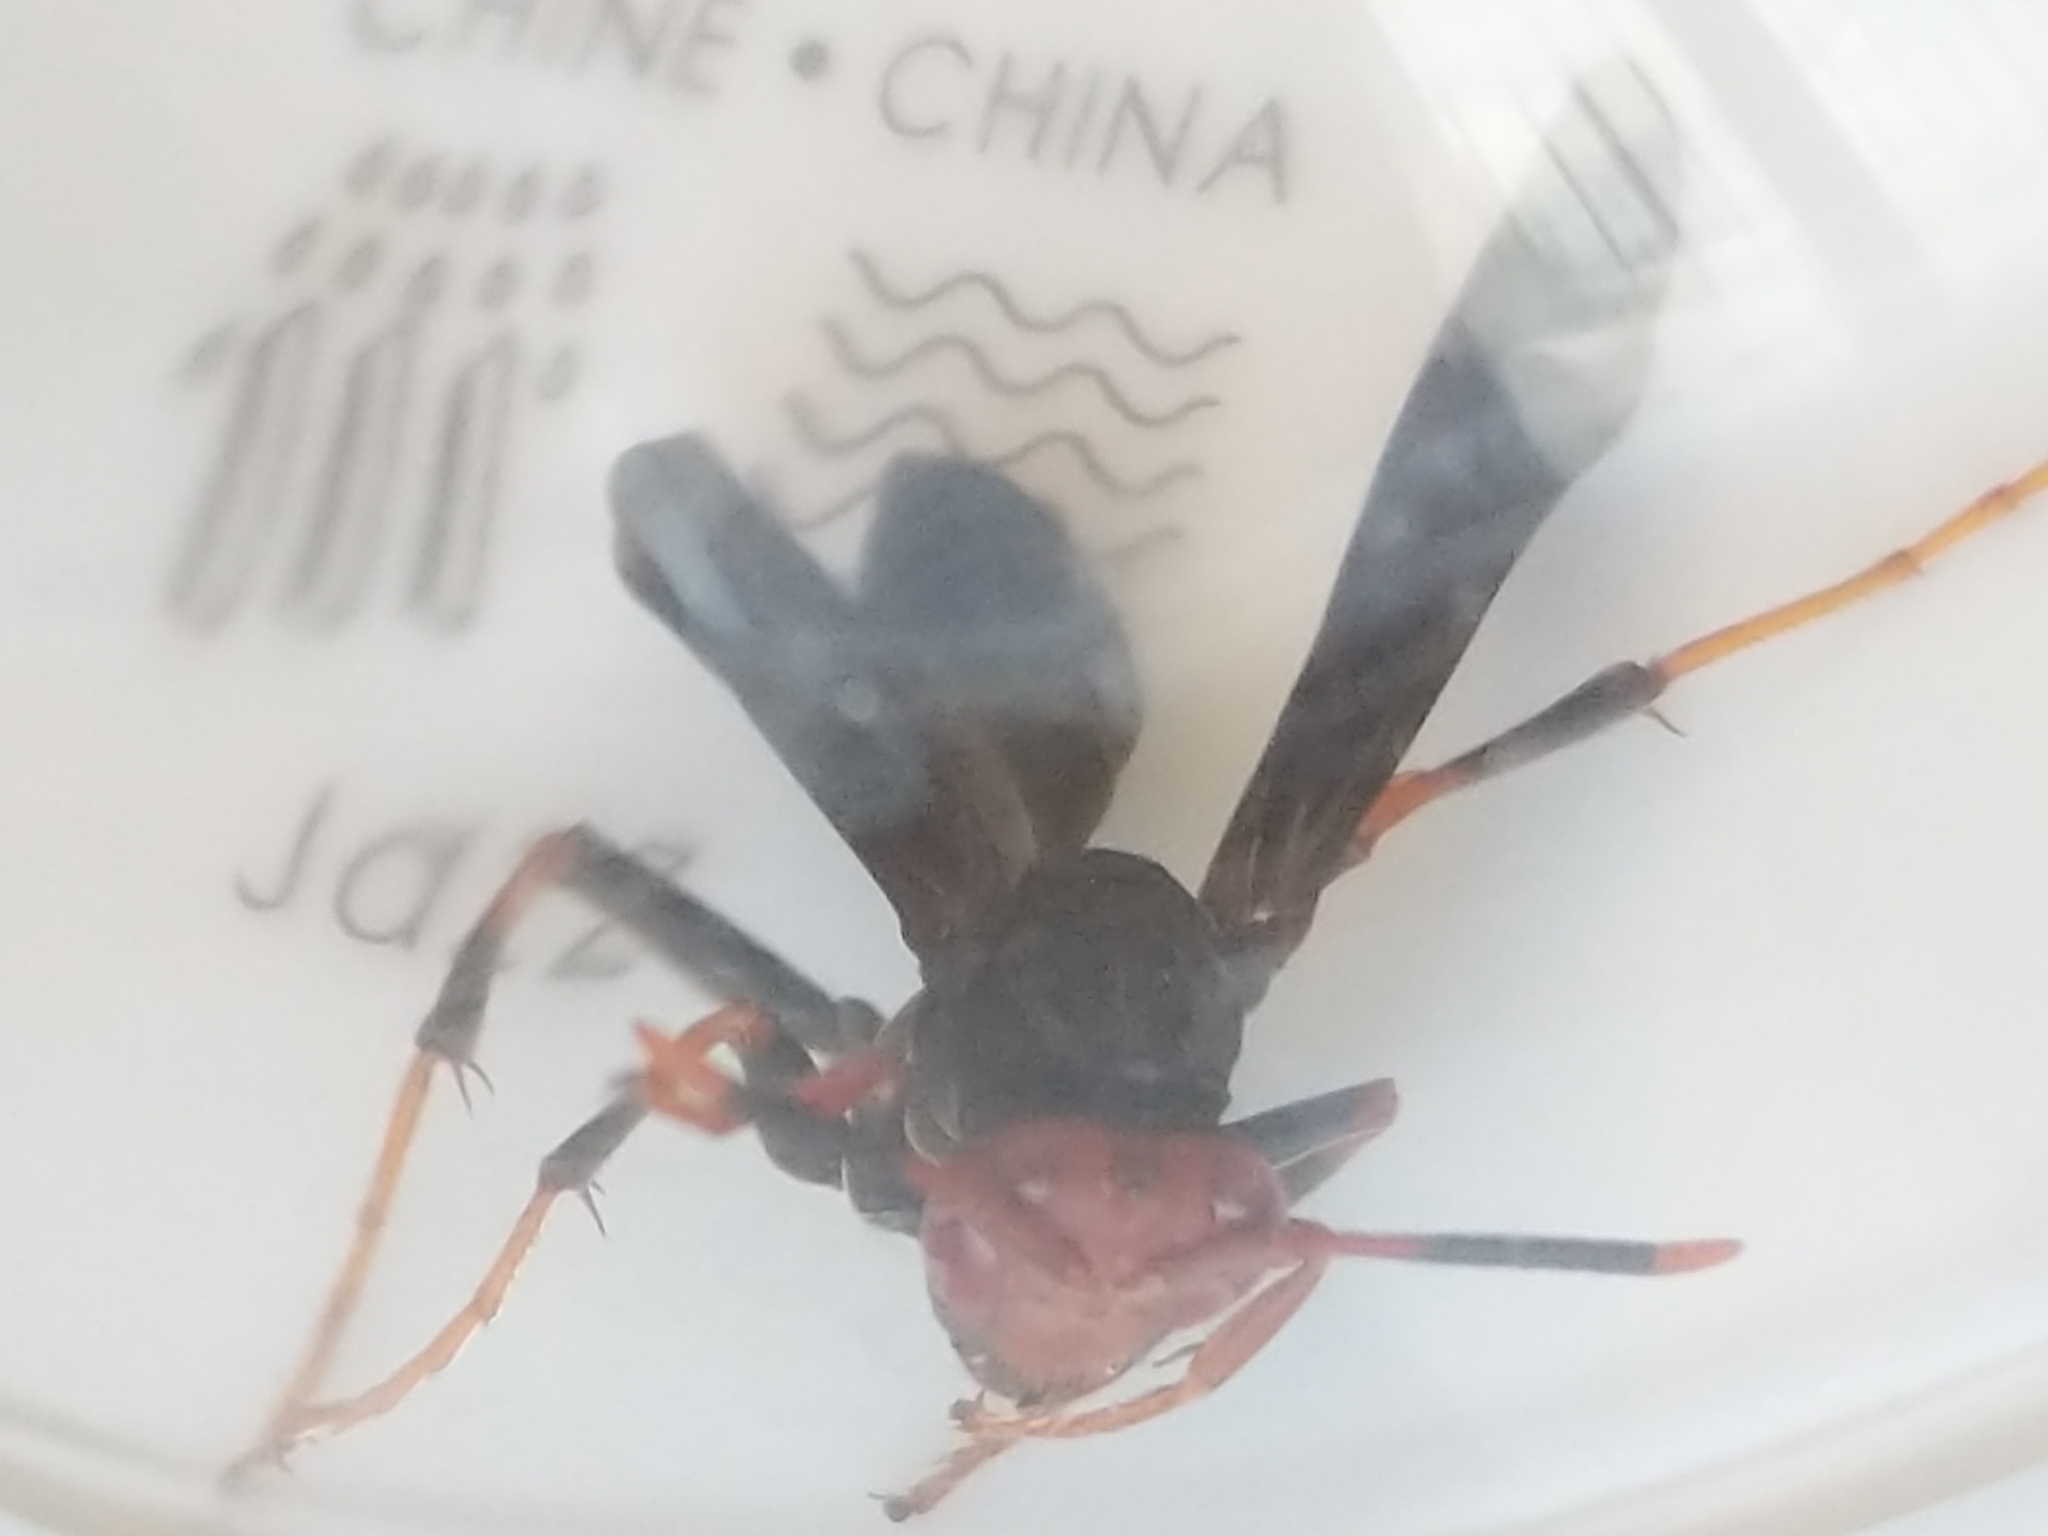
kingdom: Animalia
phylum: Arthropoda
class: Insecta
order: Hymenoptera
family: Eumenidae
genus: Polistes
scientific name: Polistes erythrocephalus
